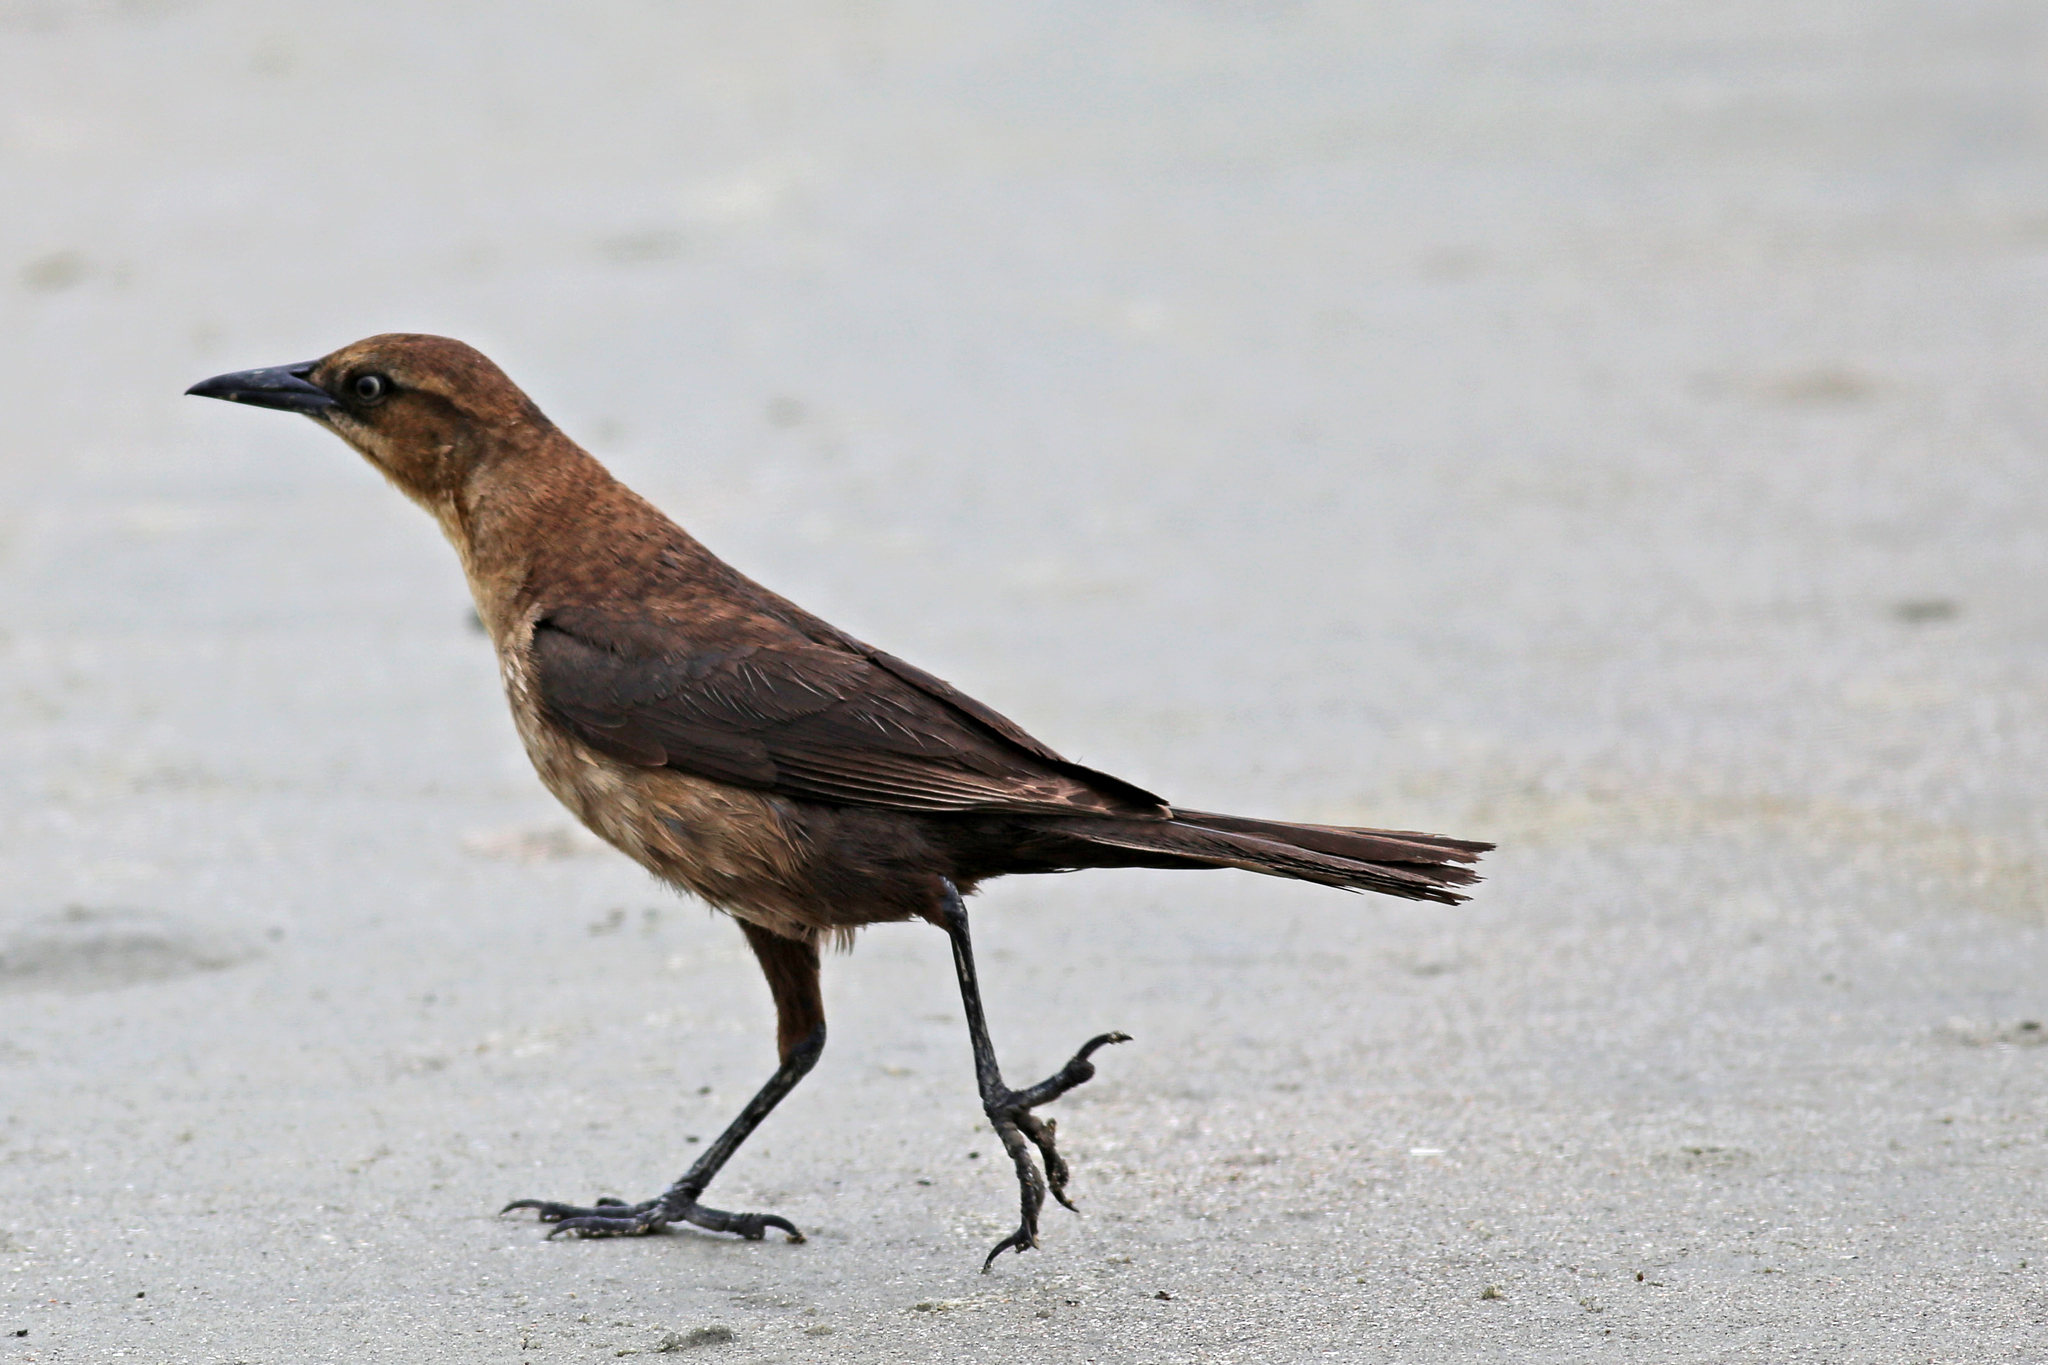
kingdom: Animalia
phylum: Chordata
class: Aves
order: Passeriformes
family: Icteridae
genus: Quiscalus
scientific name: Quiscalus major
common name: Boat-tailed grackle
